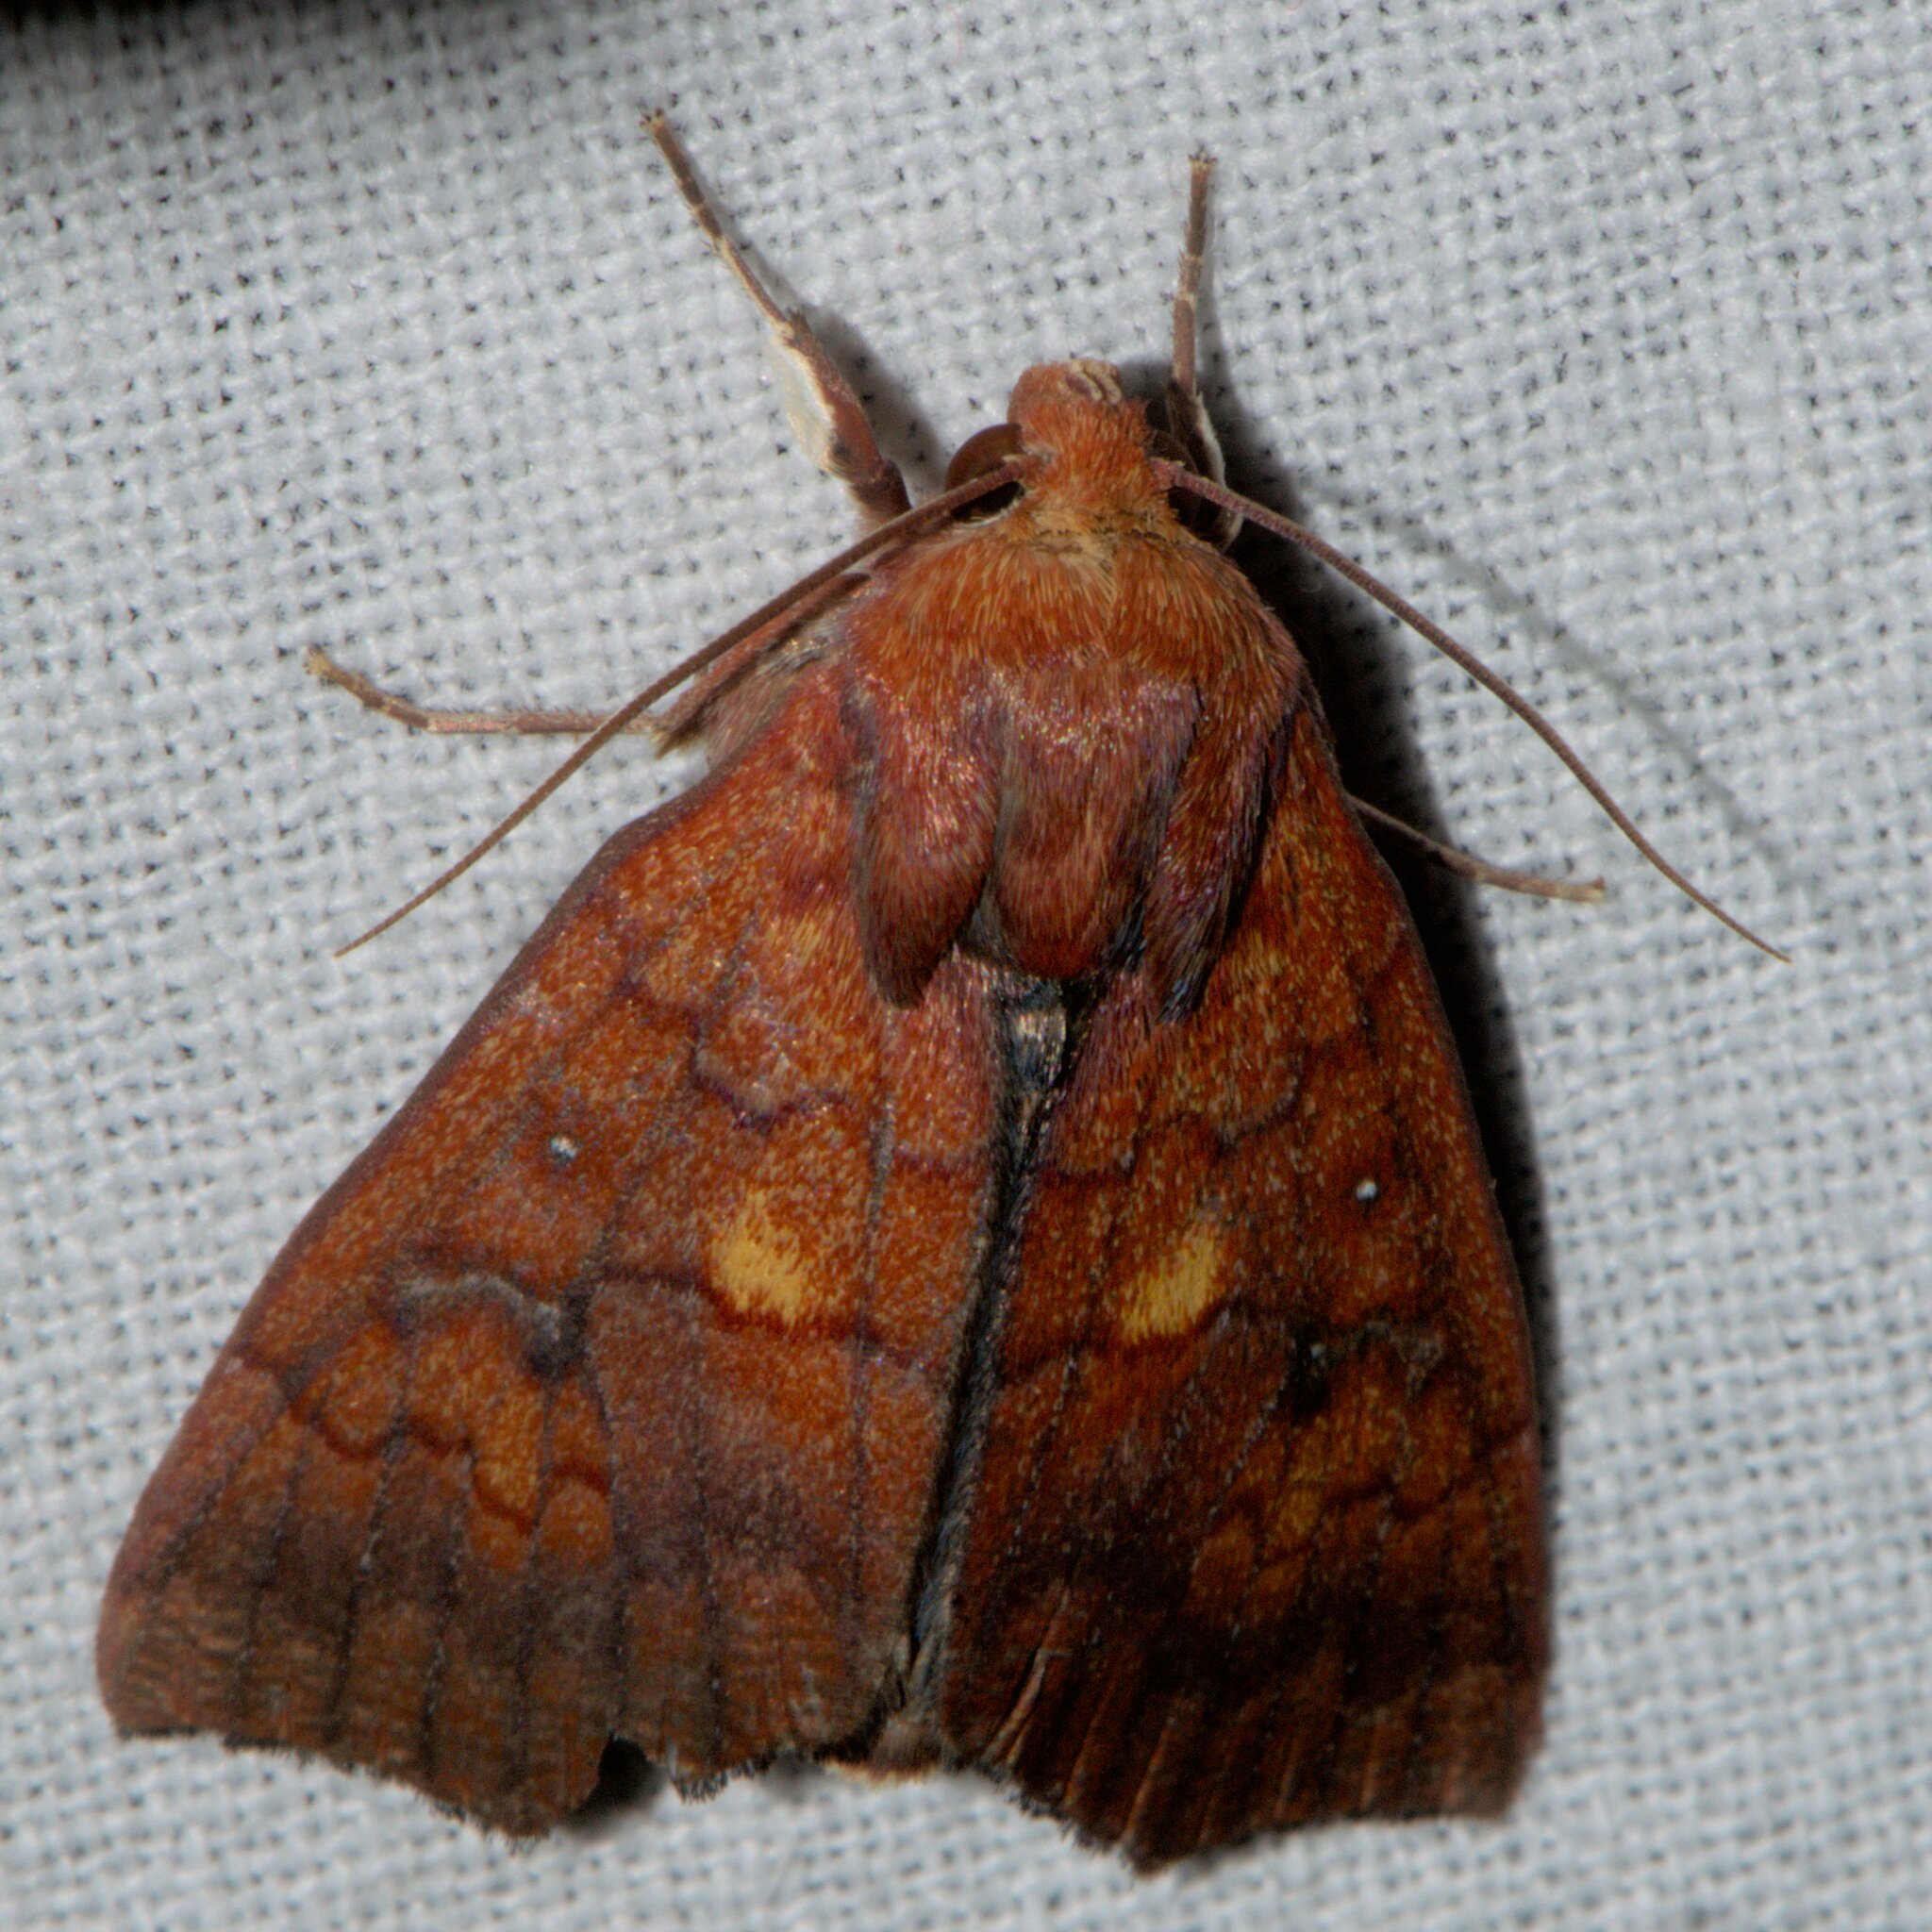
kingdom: Animalia
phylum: Arthropoda
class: Insecta
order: Lepidoptera
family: Erebidae
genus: Anomis
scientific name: Anomis fulvida
